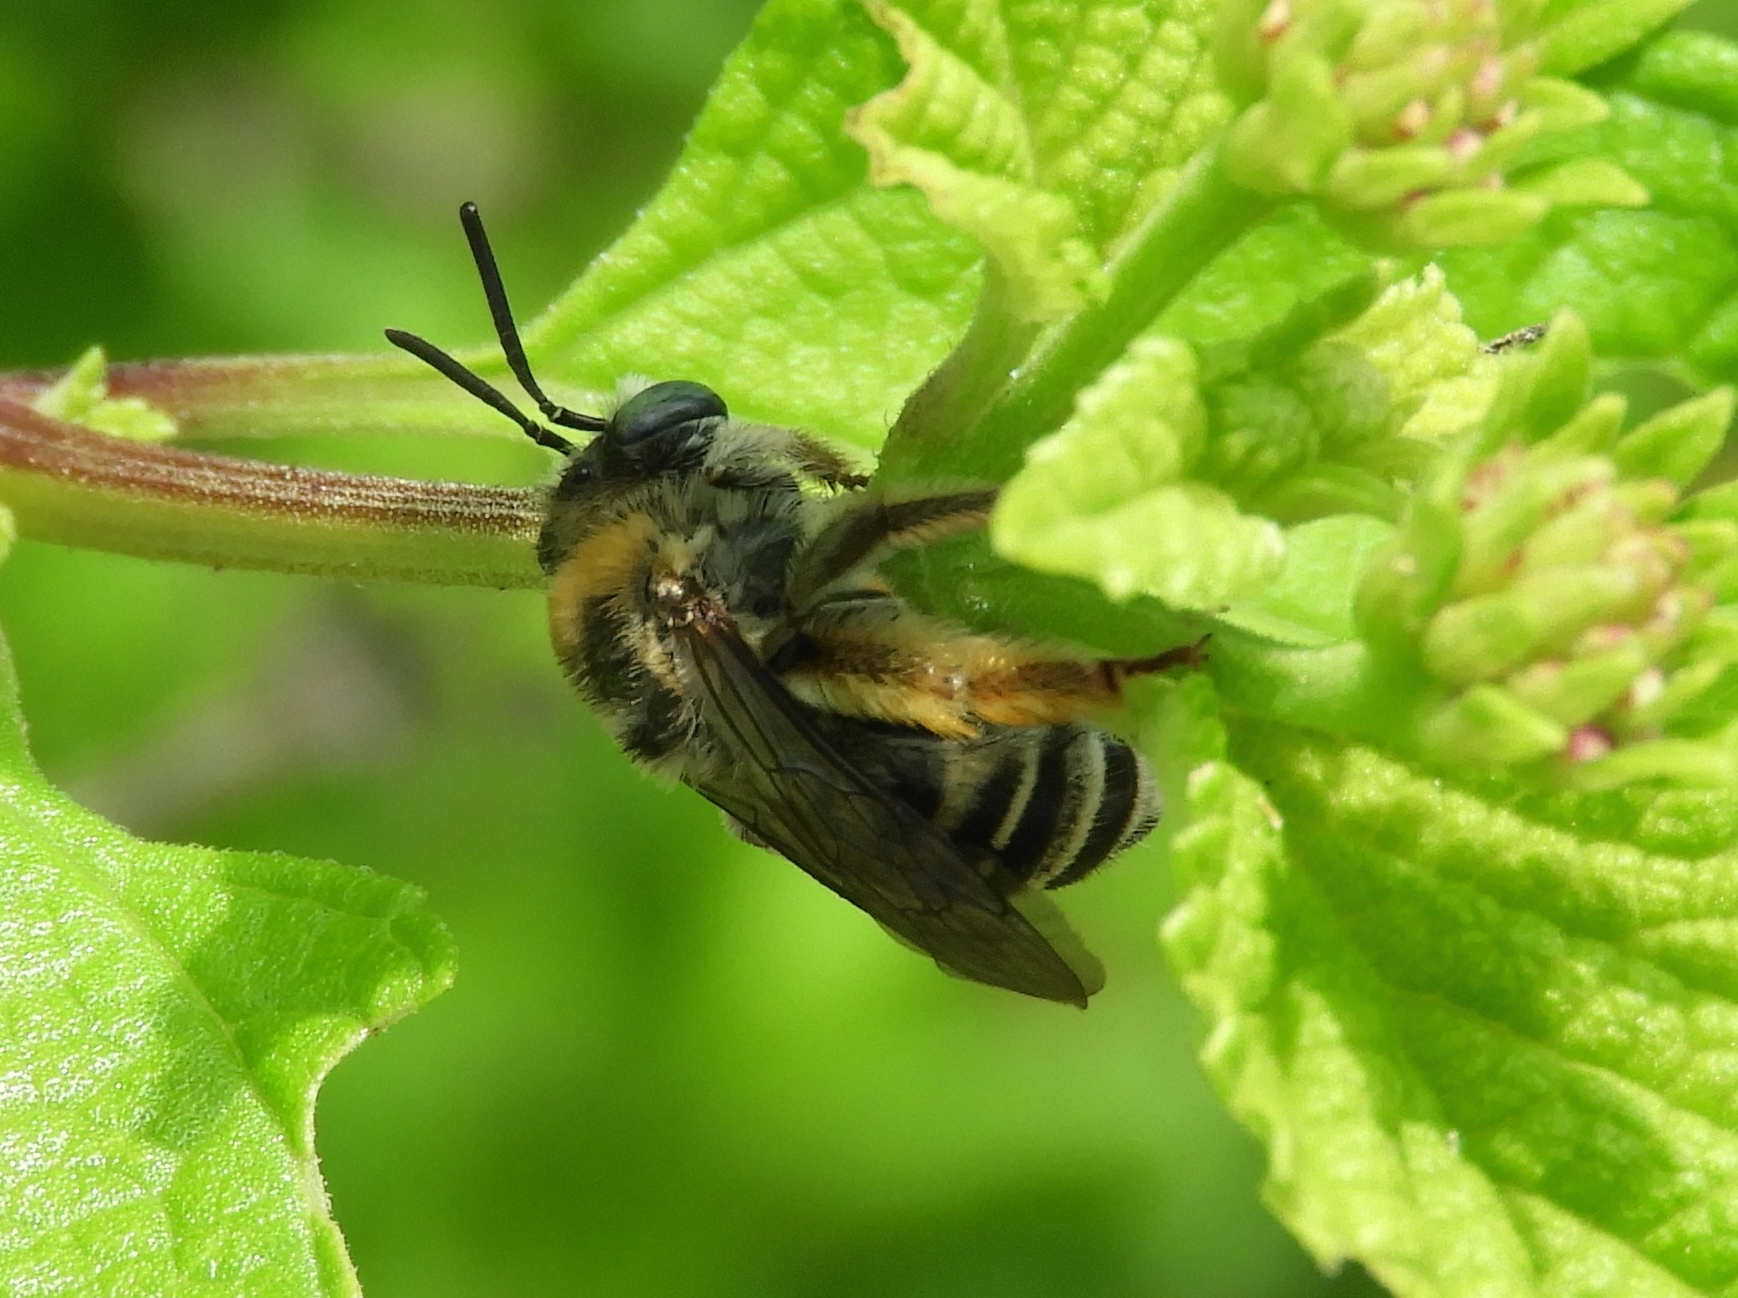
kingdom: Animalia
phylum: Arthropoda
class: Insecta
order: Hymenoptera
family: Apidae
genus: Melissodes
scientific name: Melissodes
